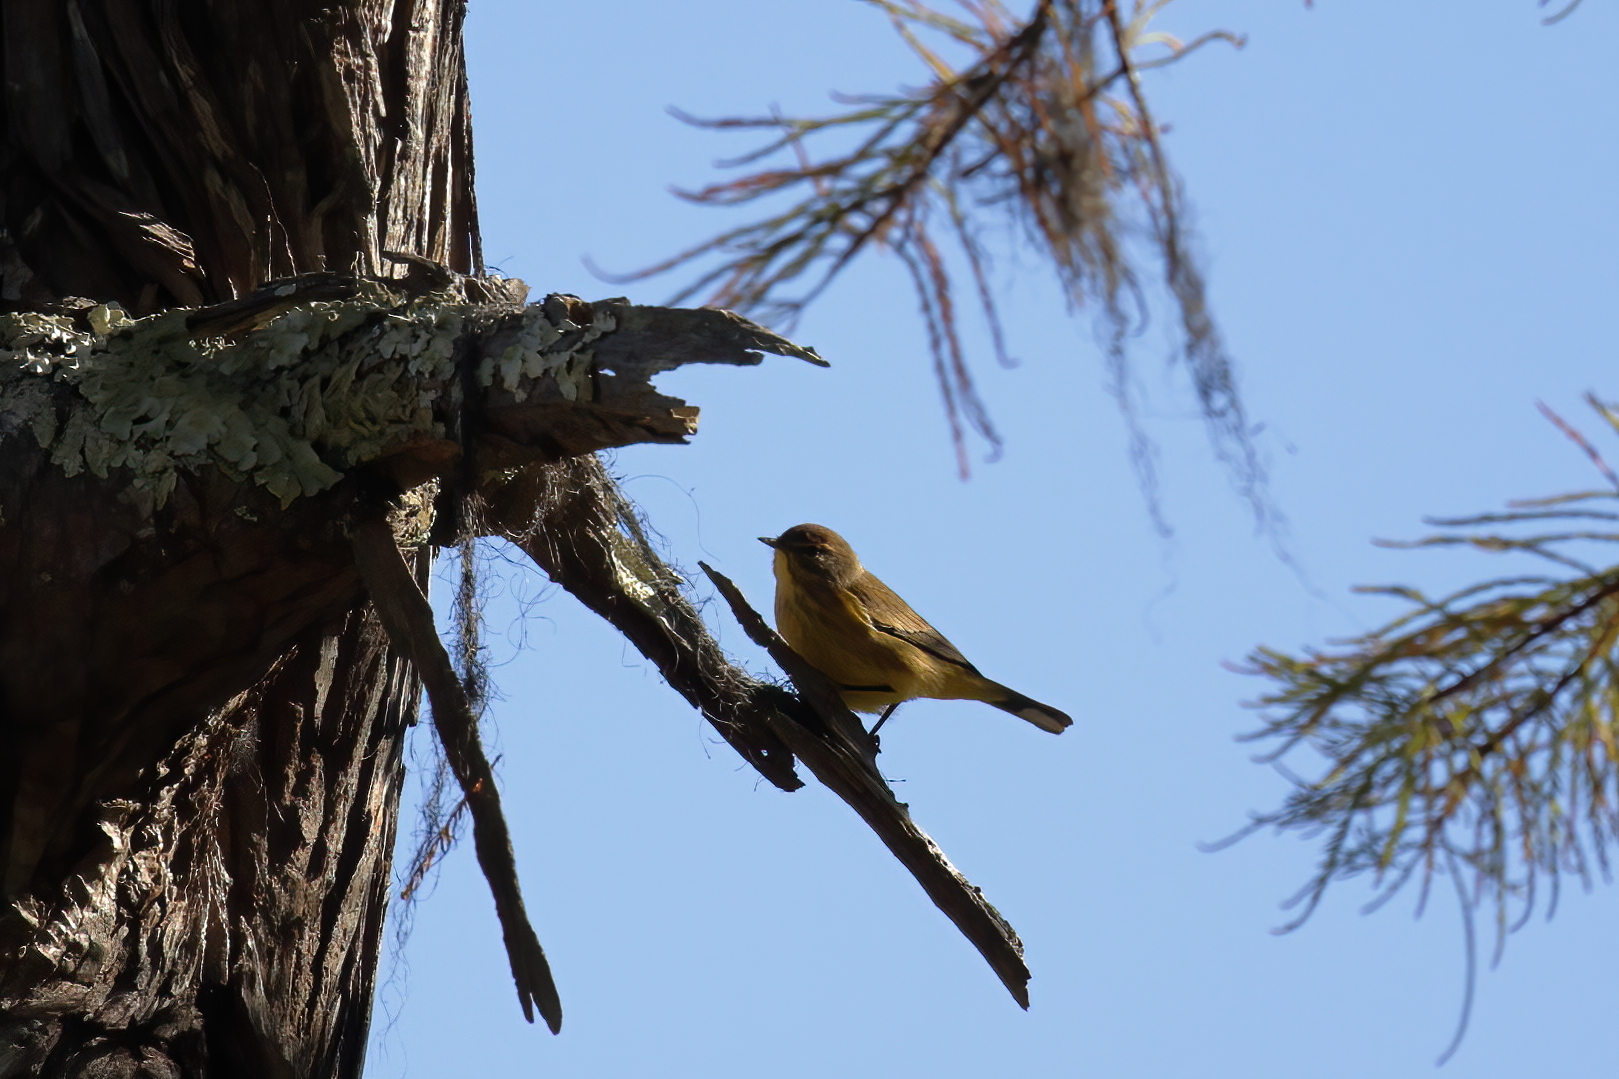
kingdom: Animalia
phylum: Chordata
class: Aves
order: Passeriformes
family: Parulidae
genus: Setophaga
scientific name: Setophaga palmarum
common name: Palm warbler
